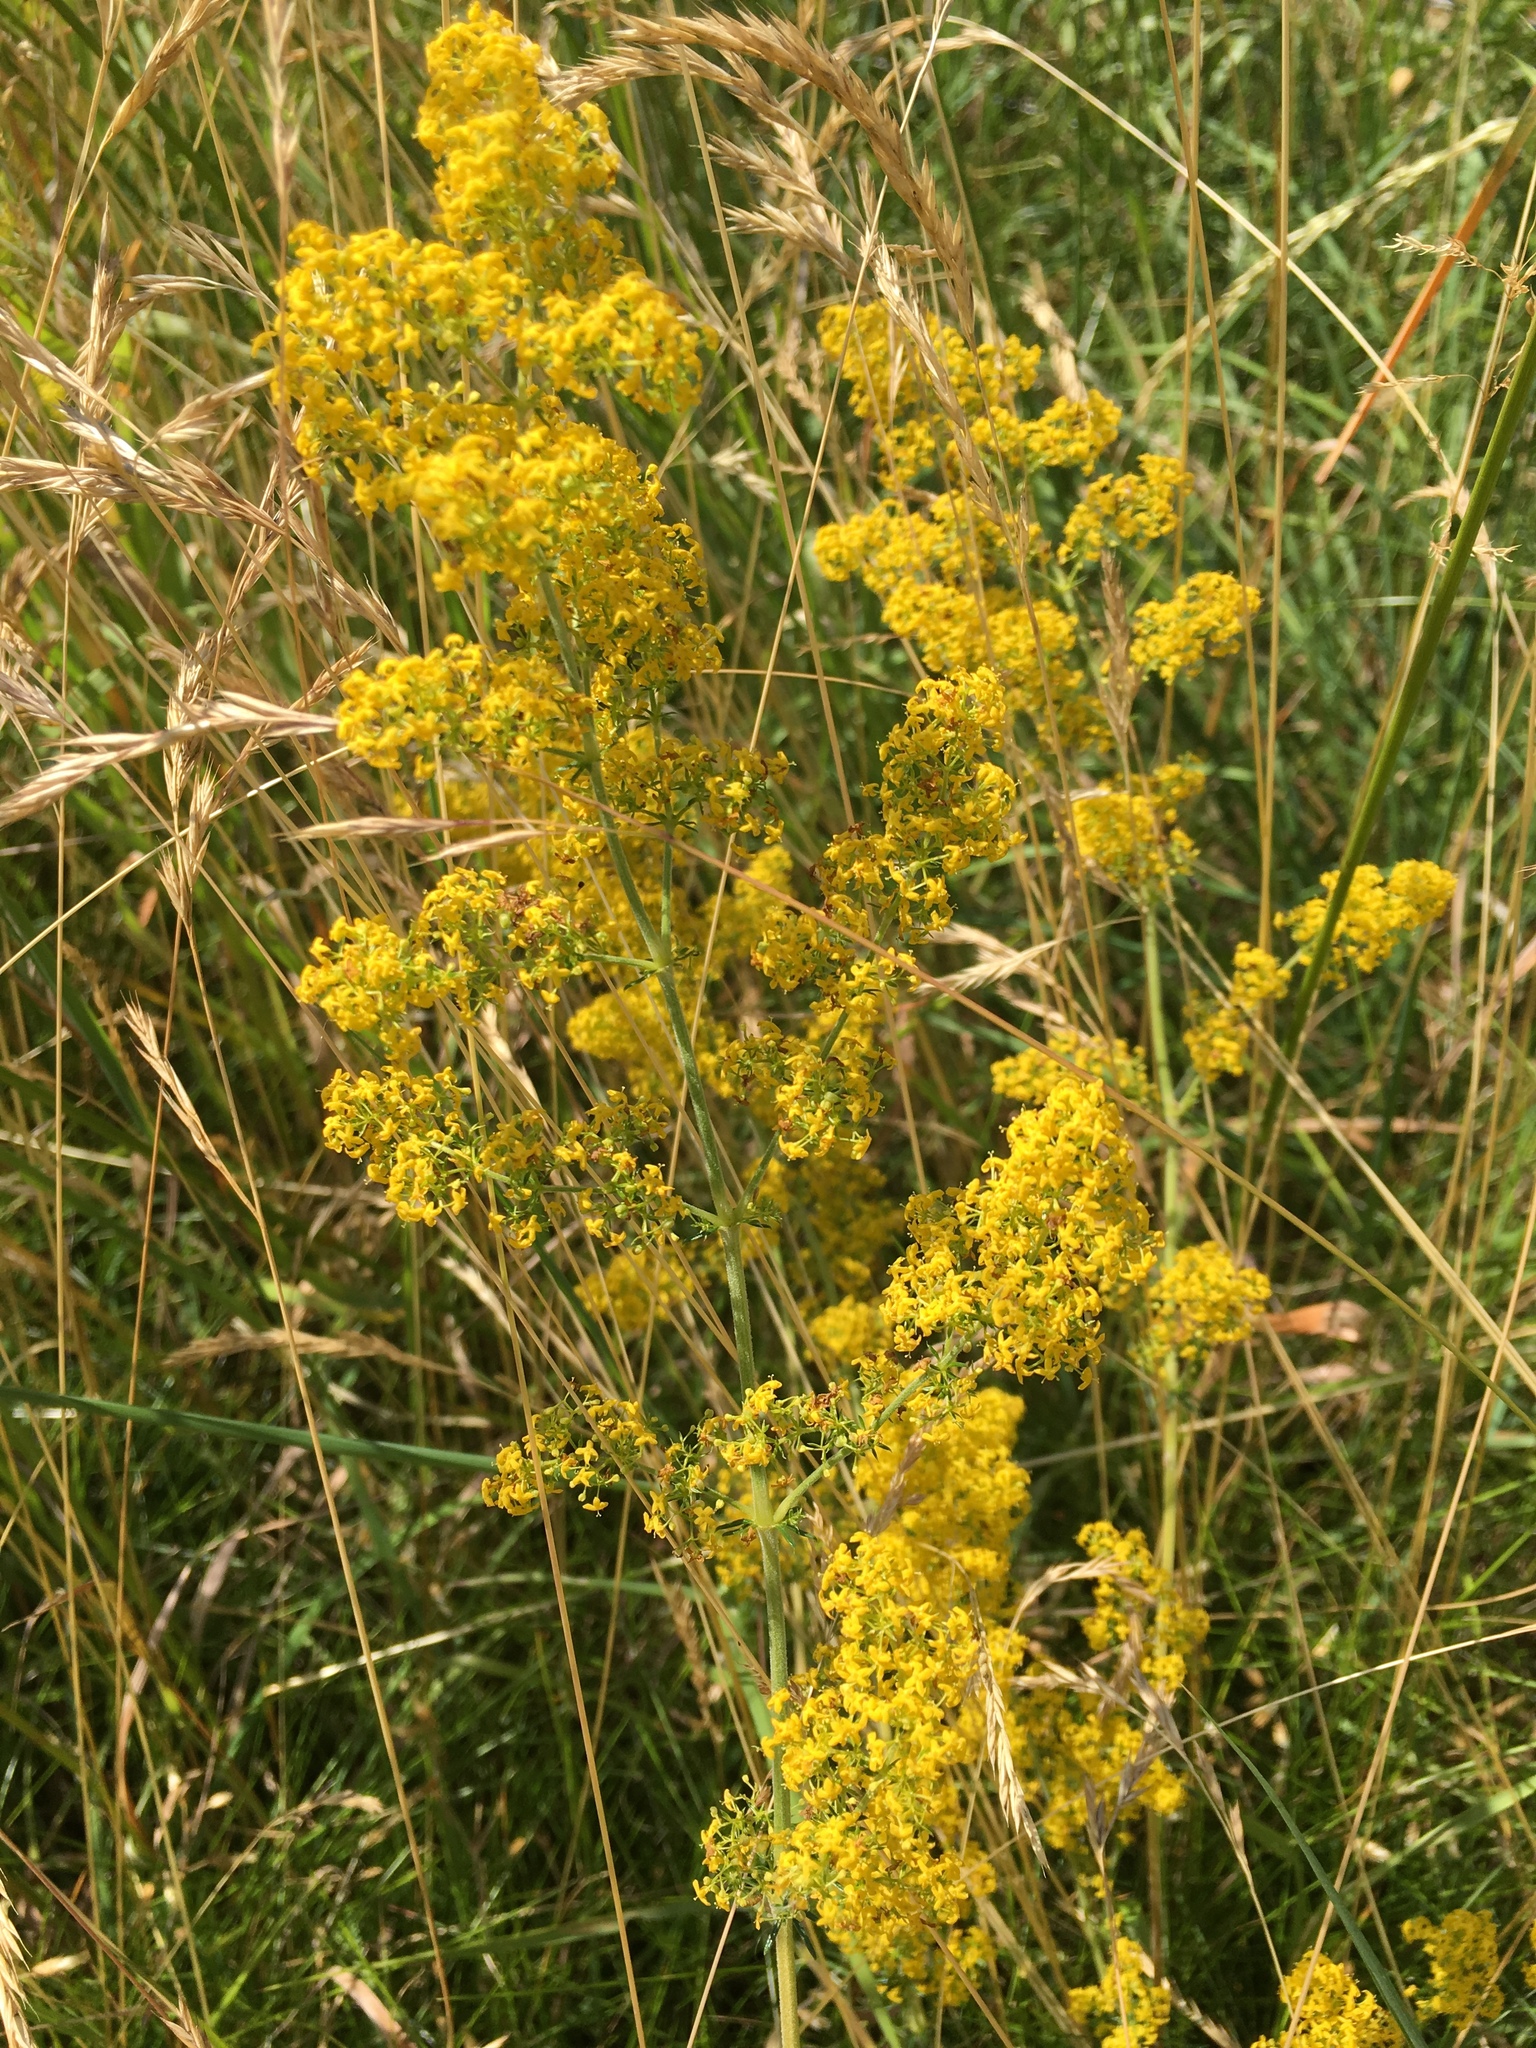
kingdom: Plantae
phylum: Tracheophyta
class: Magnoliopsida
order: Gentianales
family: Rubiaceae
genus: Galium
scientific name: Galium verum
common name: Lady's bedstraw
